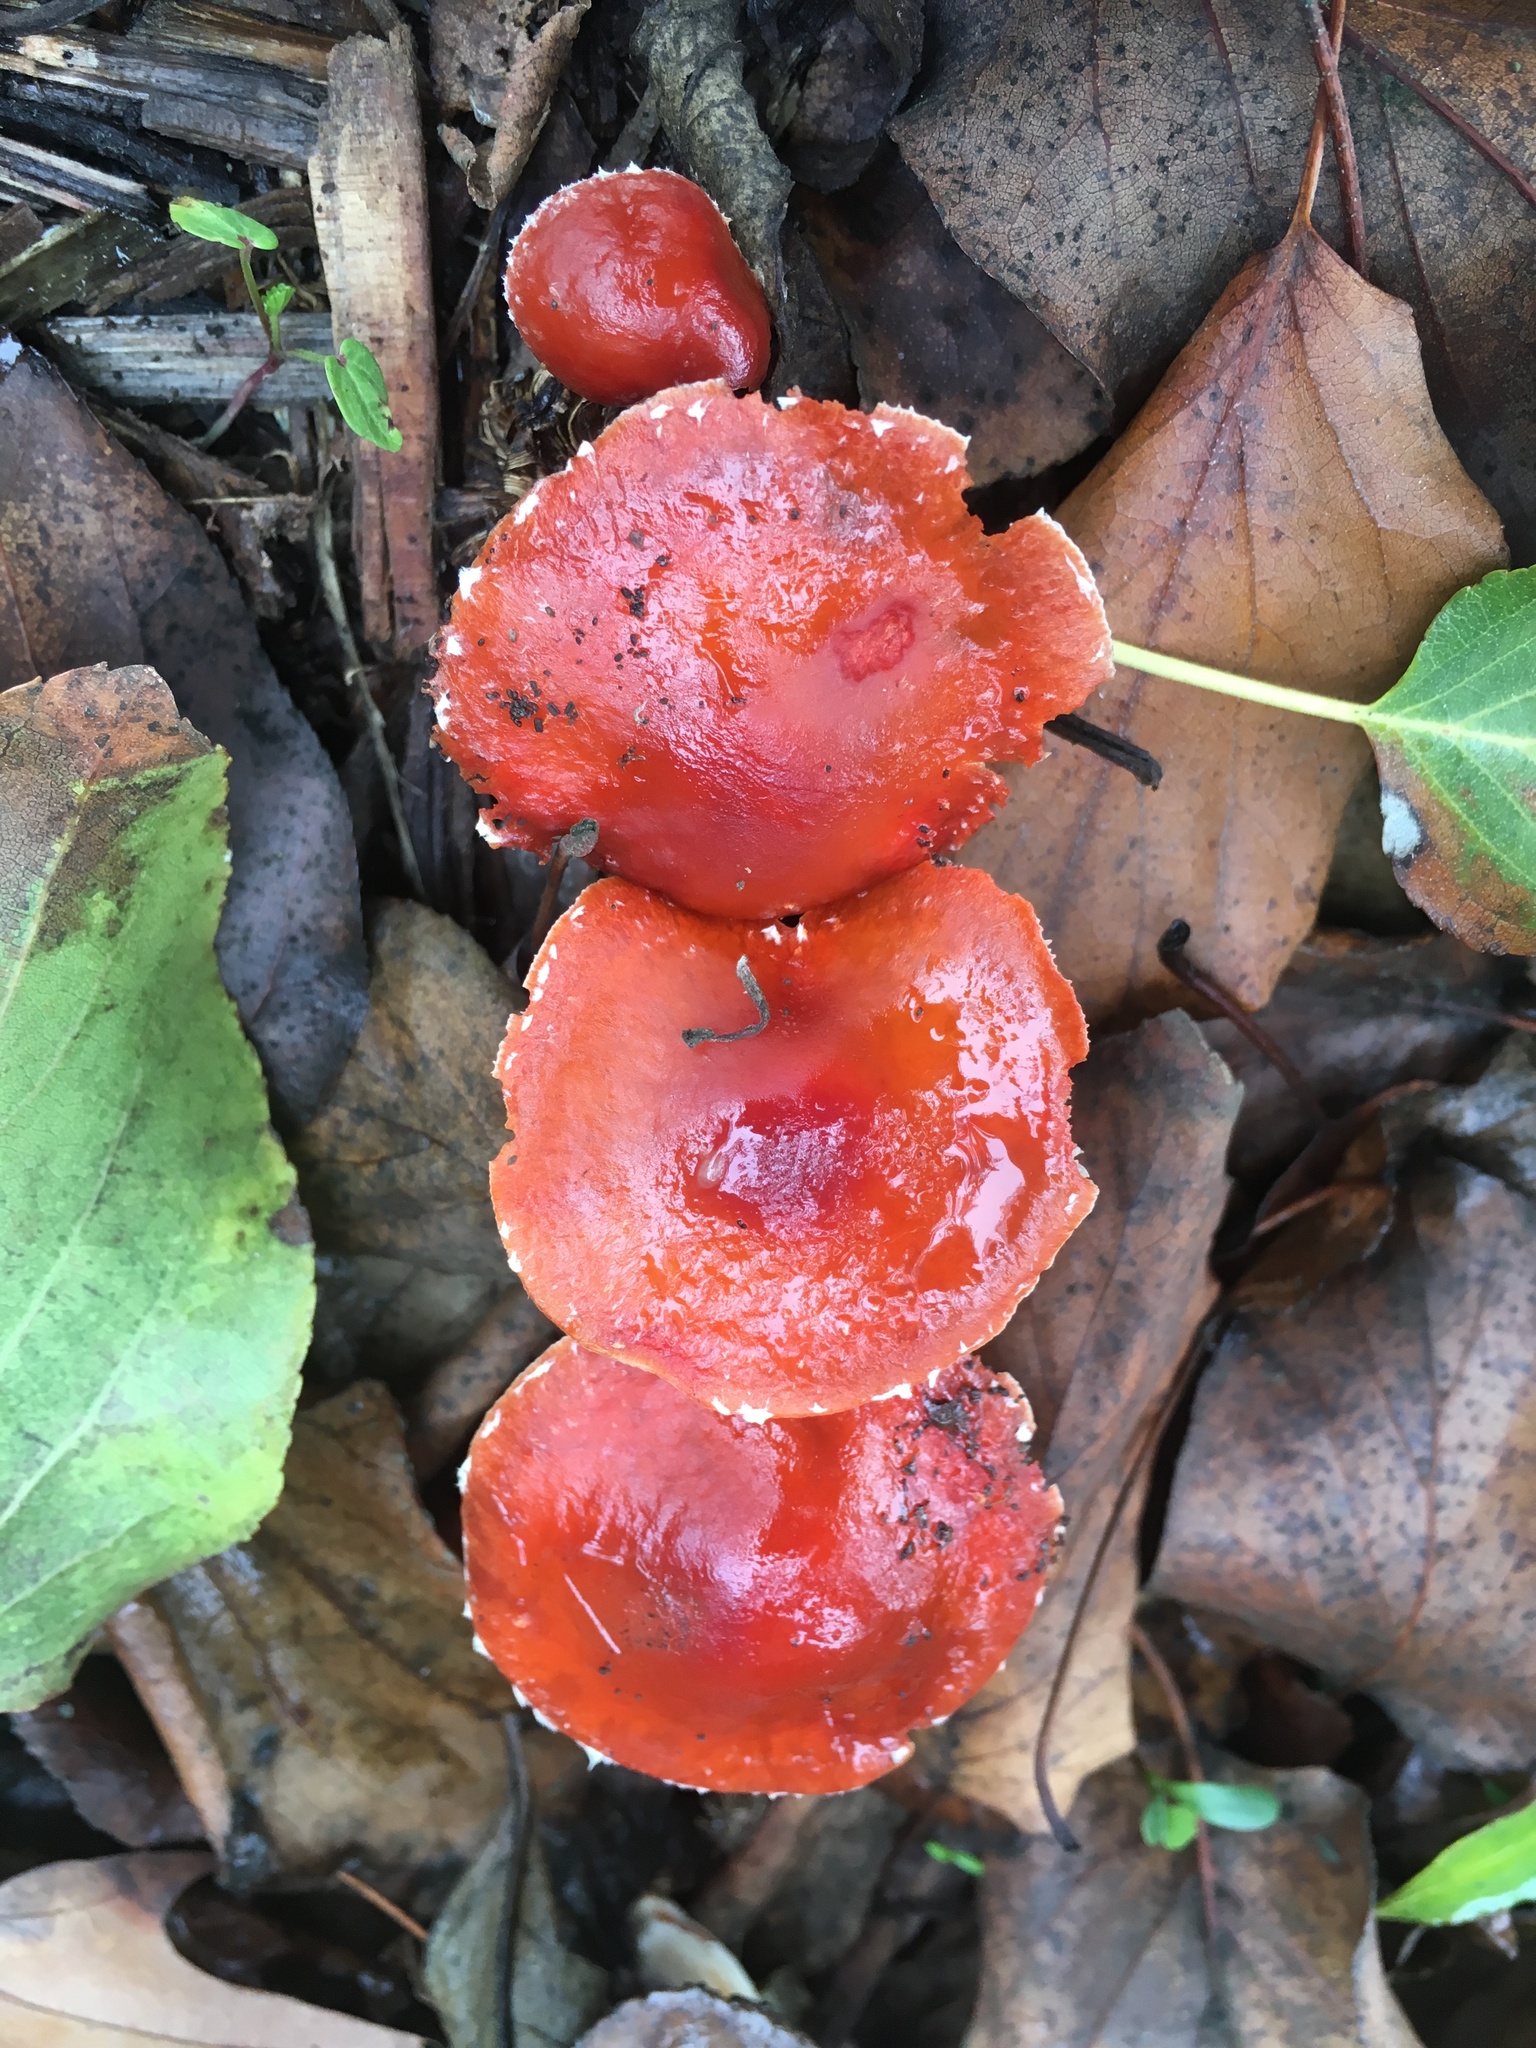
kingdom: Fungi
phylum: Basidiomycota
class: Agaricomycetes
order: Agaricales
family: Strophariaceae
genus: Leratiomyces
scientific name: Leratiomyces ceres
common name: Redlead roundhead
